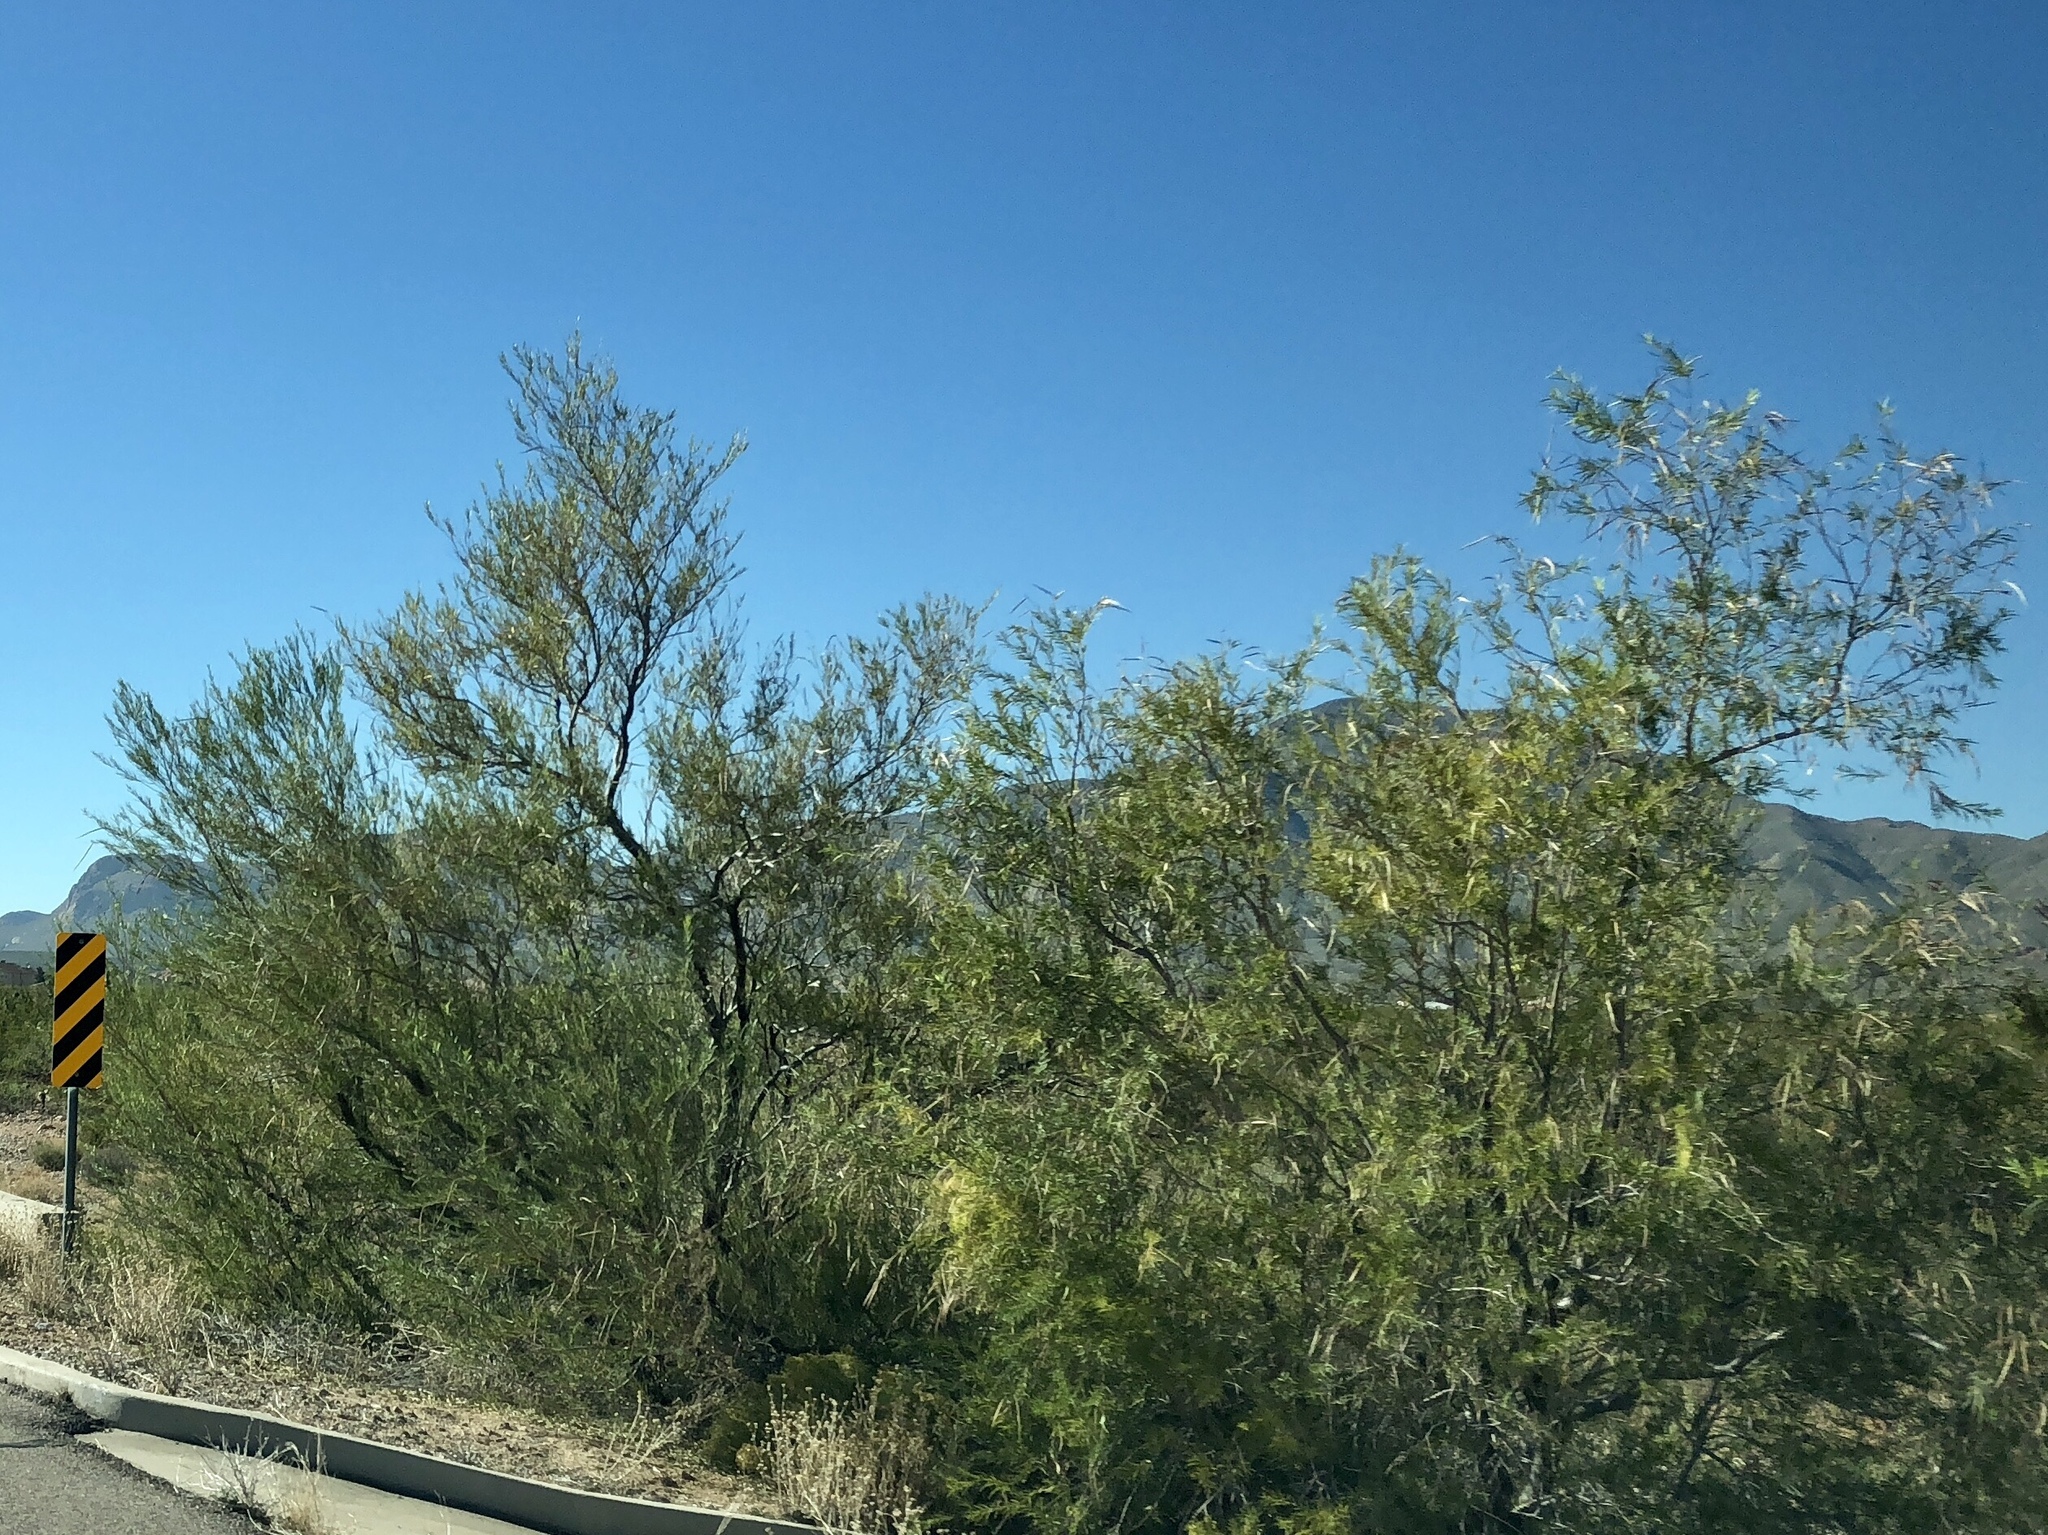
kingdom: Plantae
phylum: Tracheophyta
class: Magnoliopsida
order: Lamiales
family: Bignoniaceae
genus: Chilopsis
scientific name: Chilopsis linearis
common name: Desert-willow
